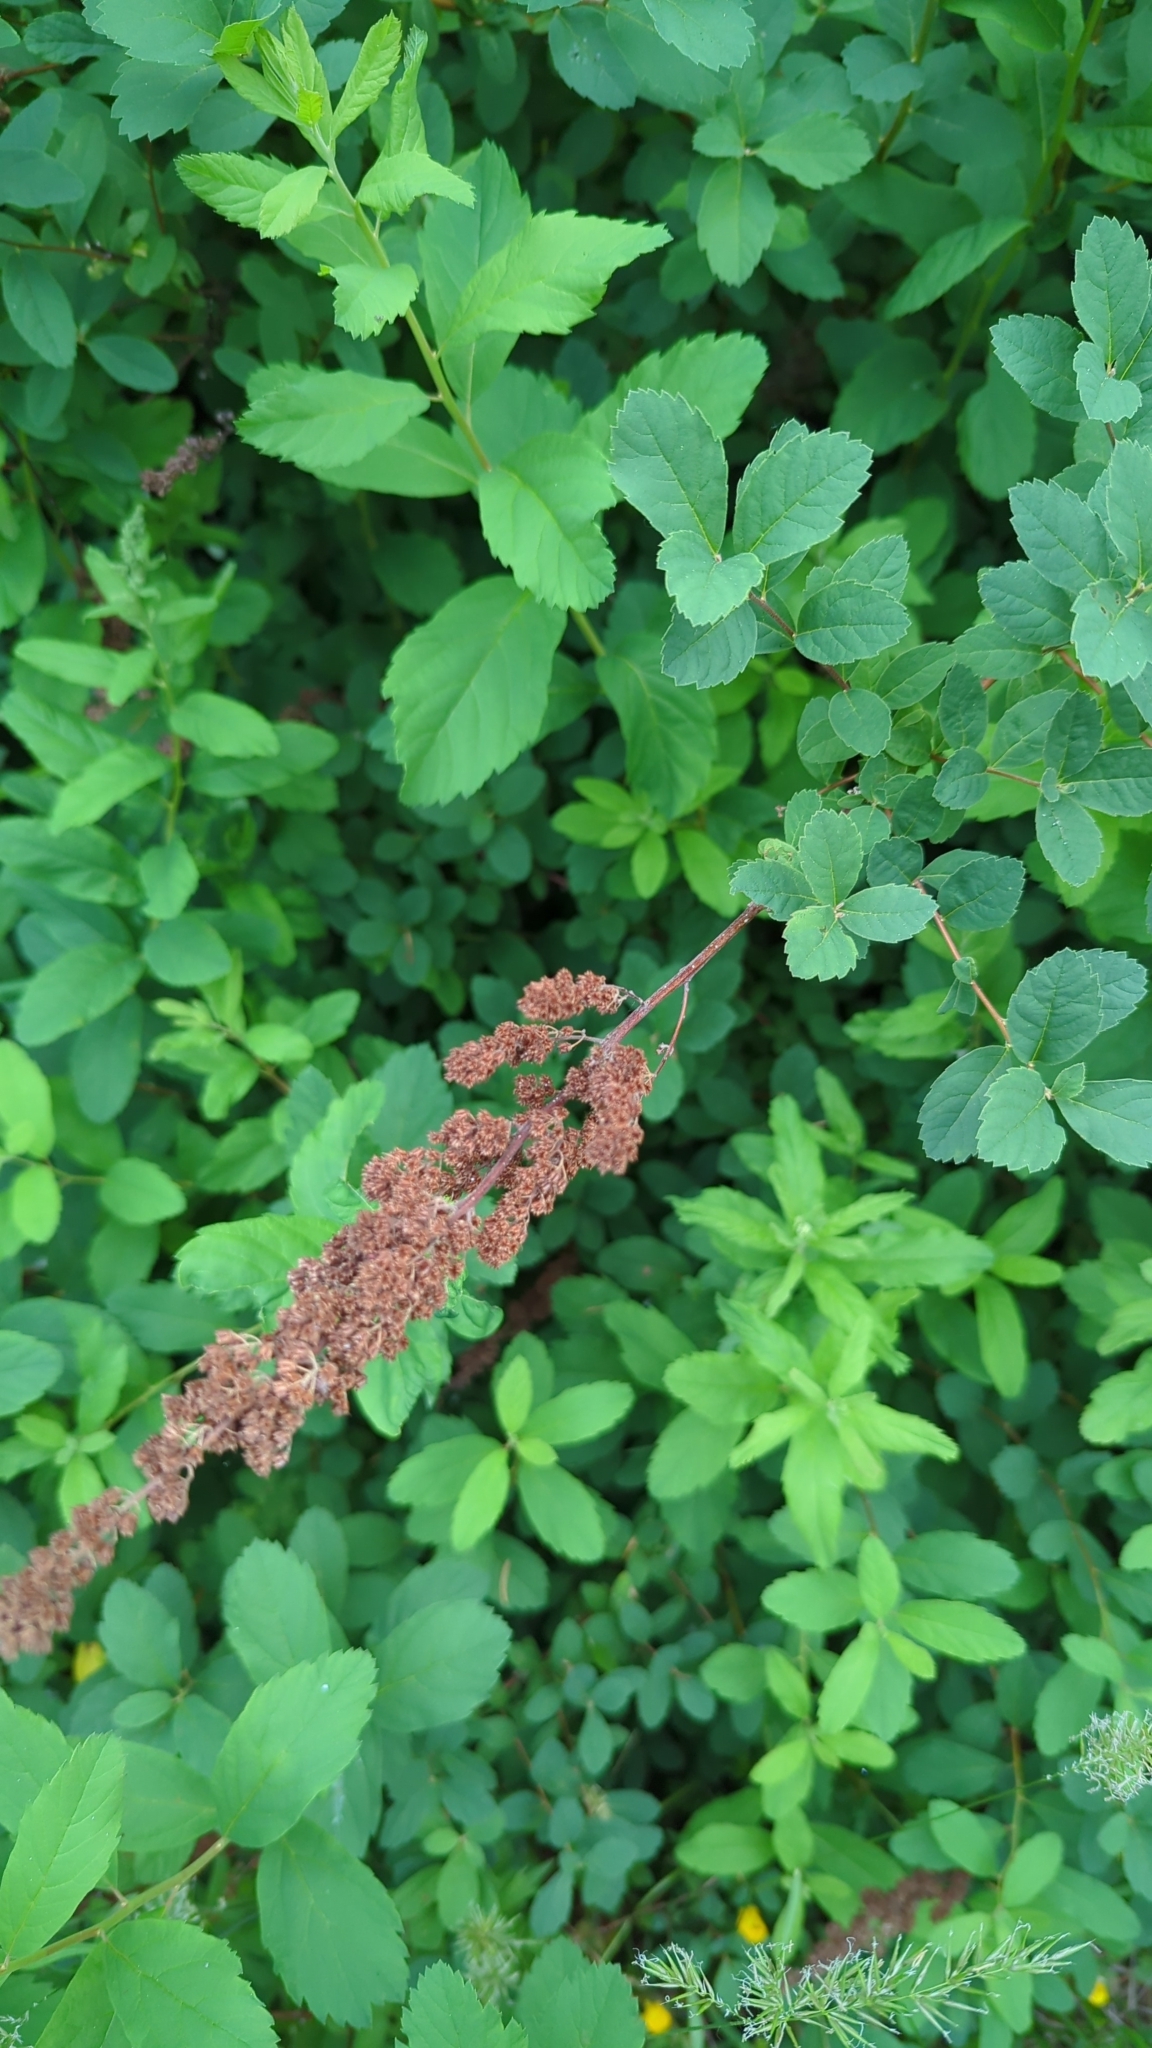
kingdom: Plantae
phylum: Tracheophyta
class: Magnoliopsida
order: Rosales
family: Rosaceae
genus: Spiraea
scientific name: Spiraea douglasii
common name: Steeplebush
